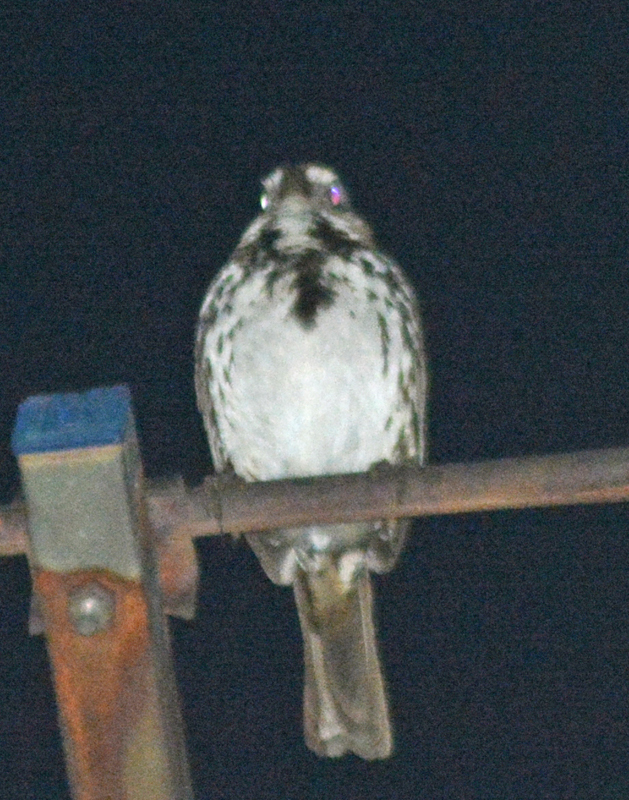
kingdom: Animalia
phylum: Chordata
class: Aves
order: Passeriformes
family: Passerellidae
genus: Melospiza
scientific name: Melospiza melodia
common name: Song sparrow
